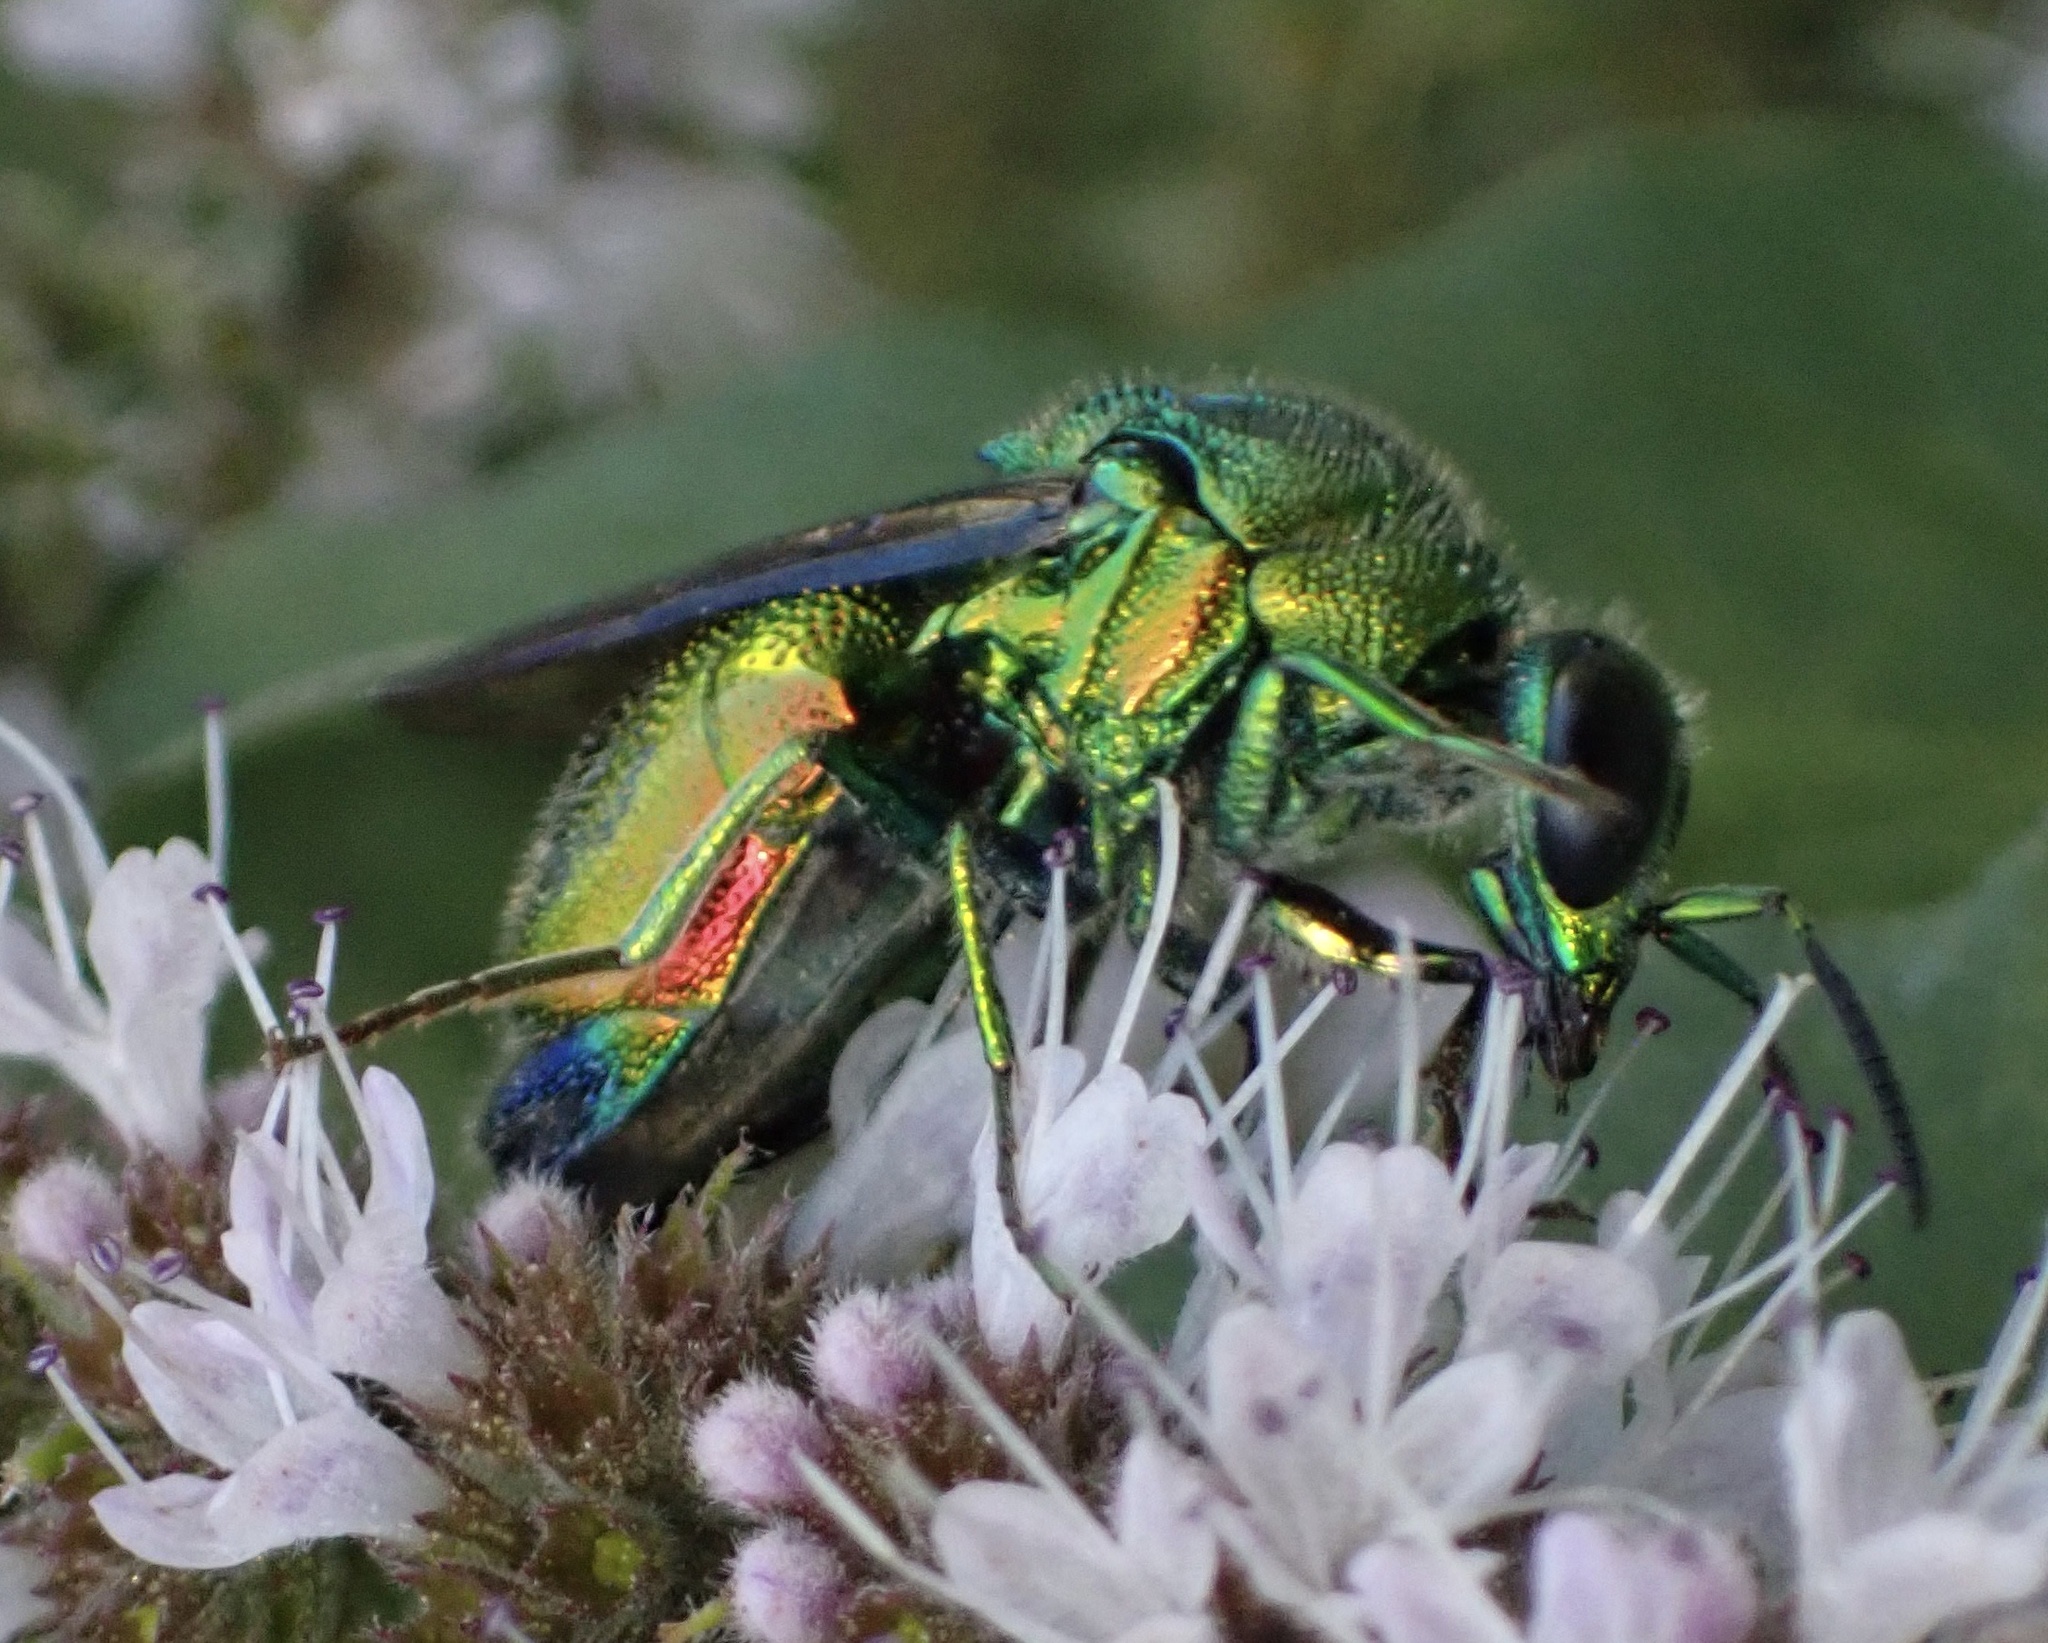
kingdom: Animalia
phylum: Arthropoda
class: Insecta
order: Hymenoptera
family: Chrysididae
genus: Stilbum
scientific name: Stilbum cyanurum
